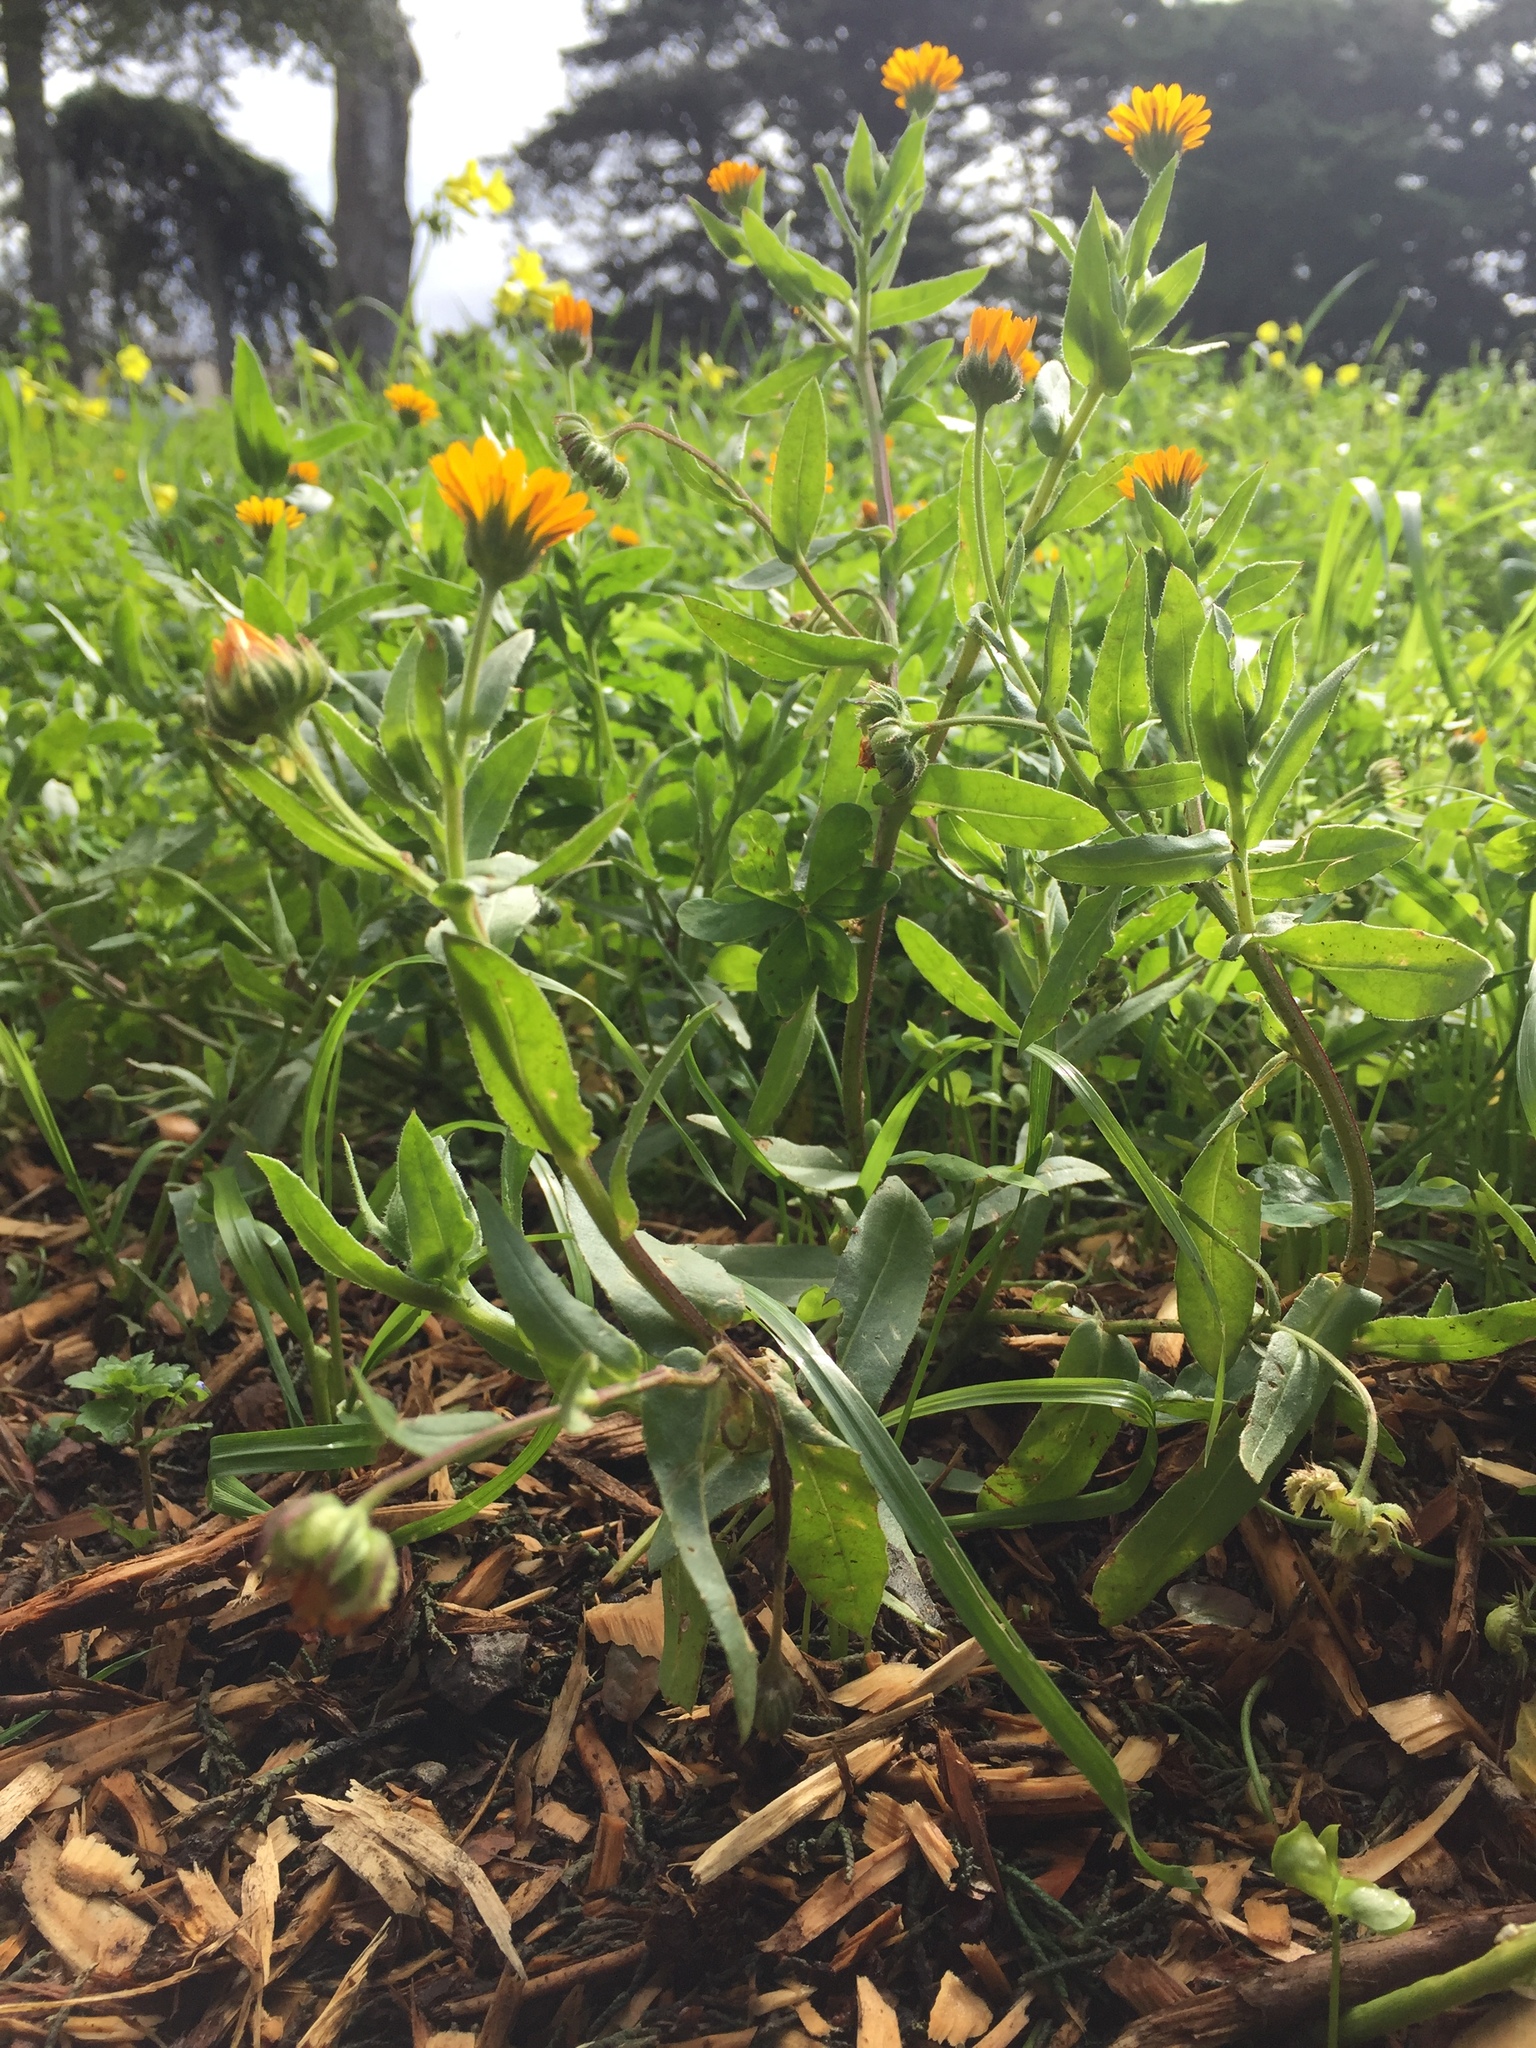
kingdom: Plantae
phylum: Tracheophyta
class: Magnoliopsida
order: Asterales
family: Asteraceae
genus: Calendula
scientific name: Calendula arvensis
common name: Field marigold
